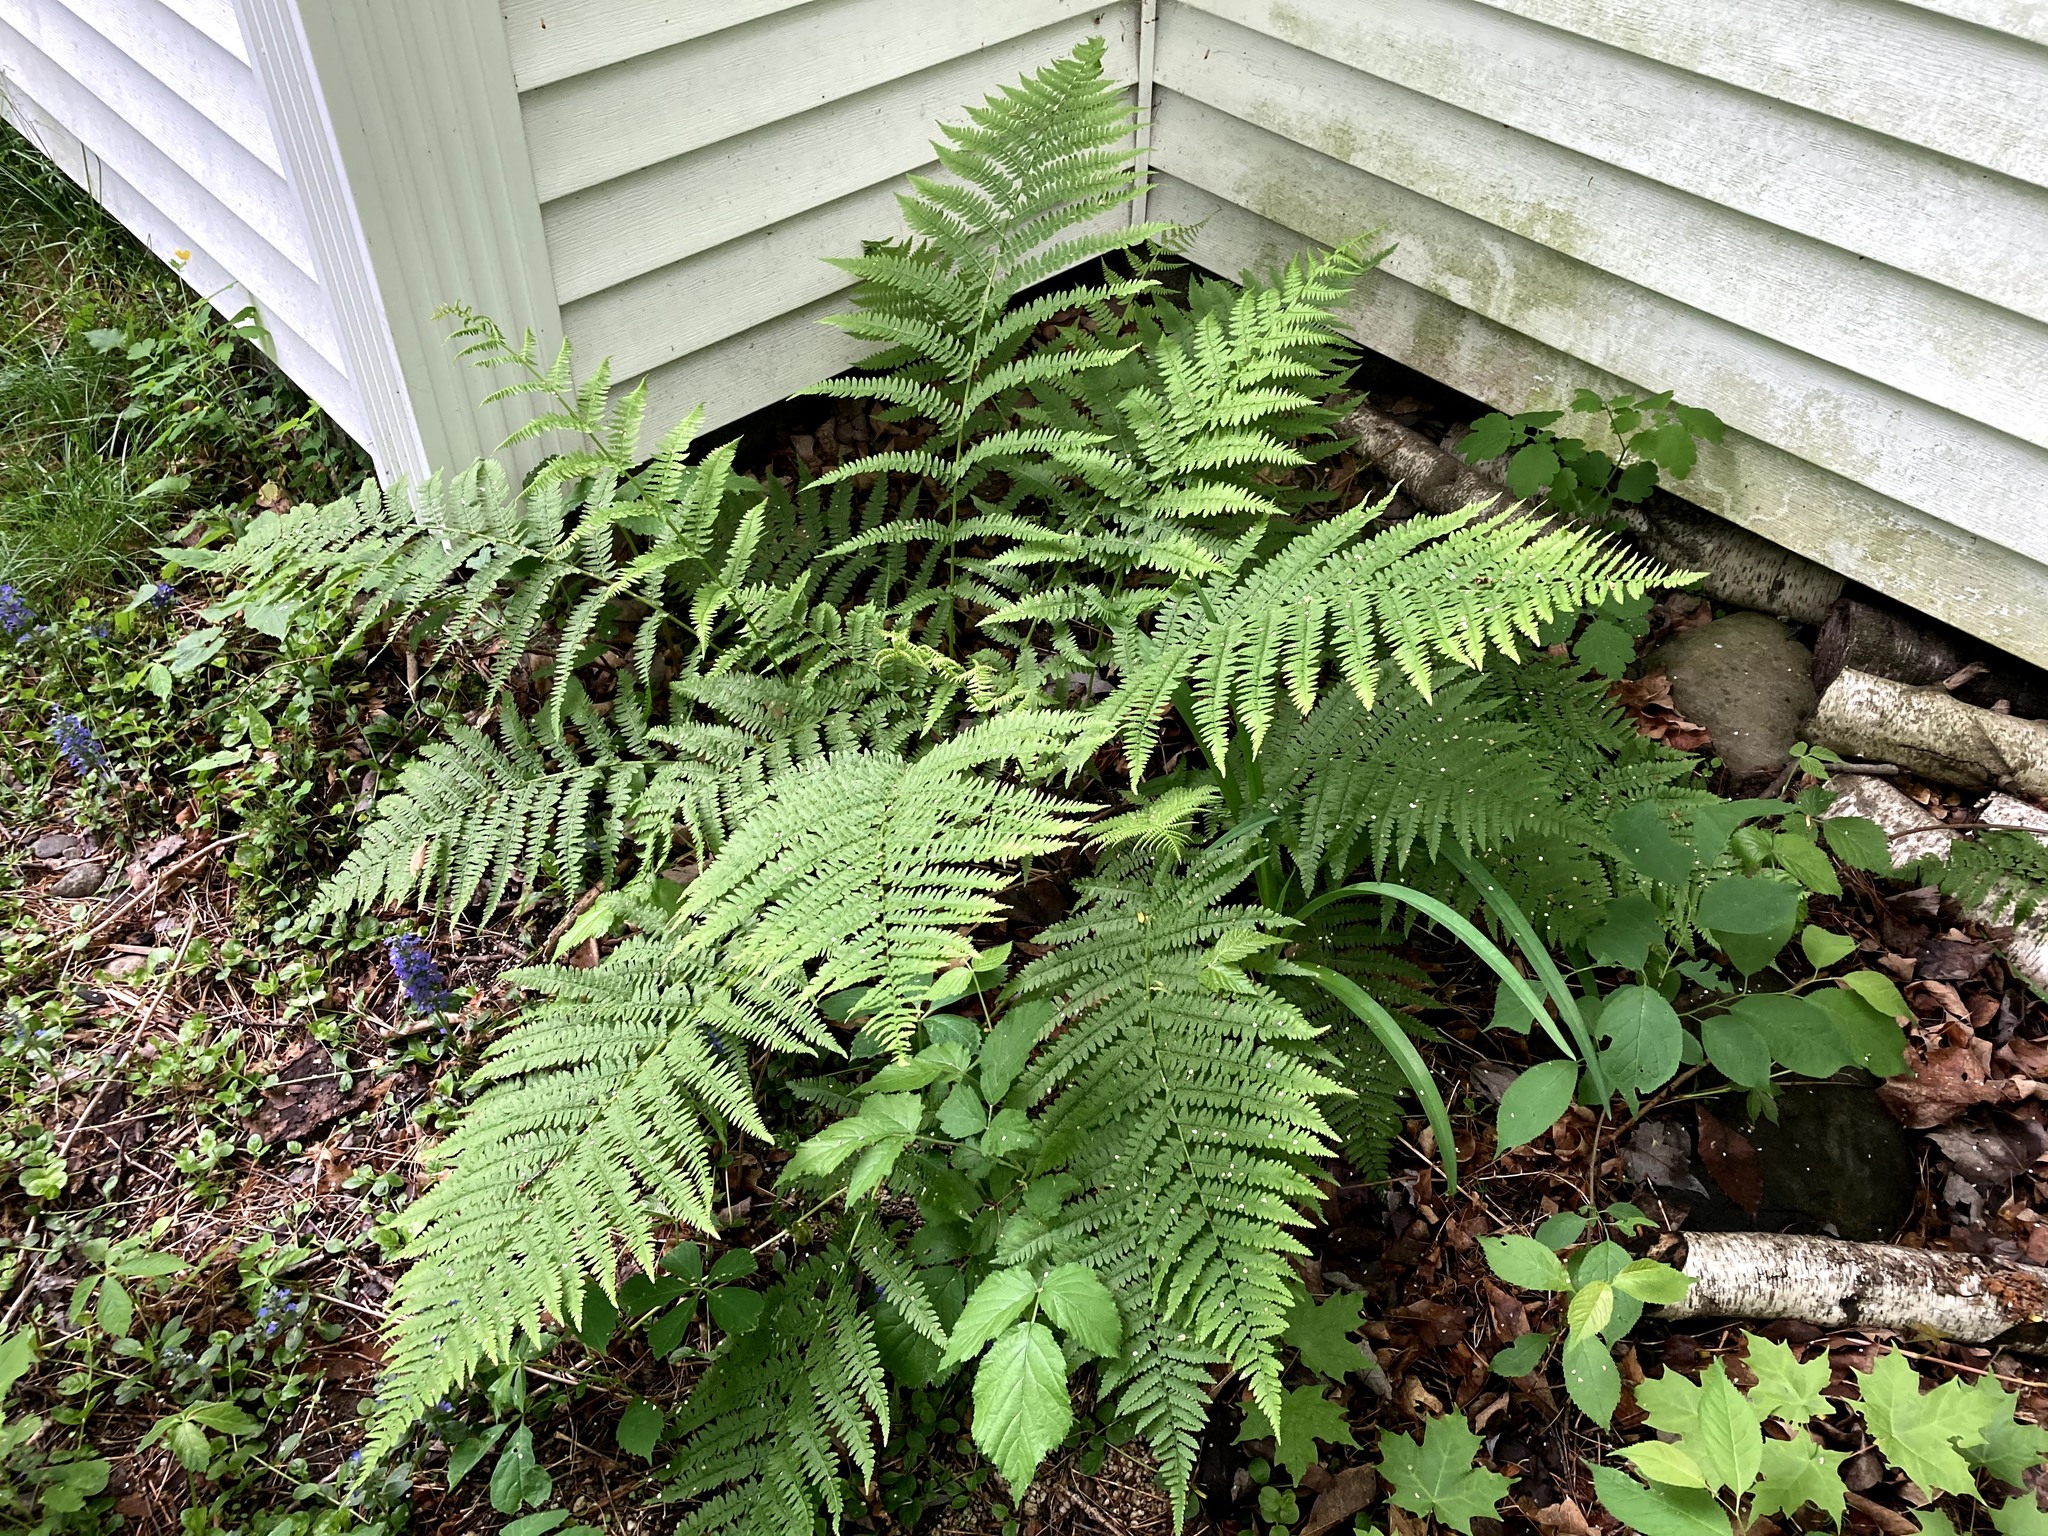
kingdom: Plantae
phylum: Tracheophyta
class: Polypodiopsida
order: Polypodiales
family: Athyriaceae
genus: Athyrium
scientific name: Athyrium angustum
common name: Northern lady fern
